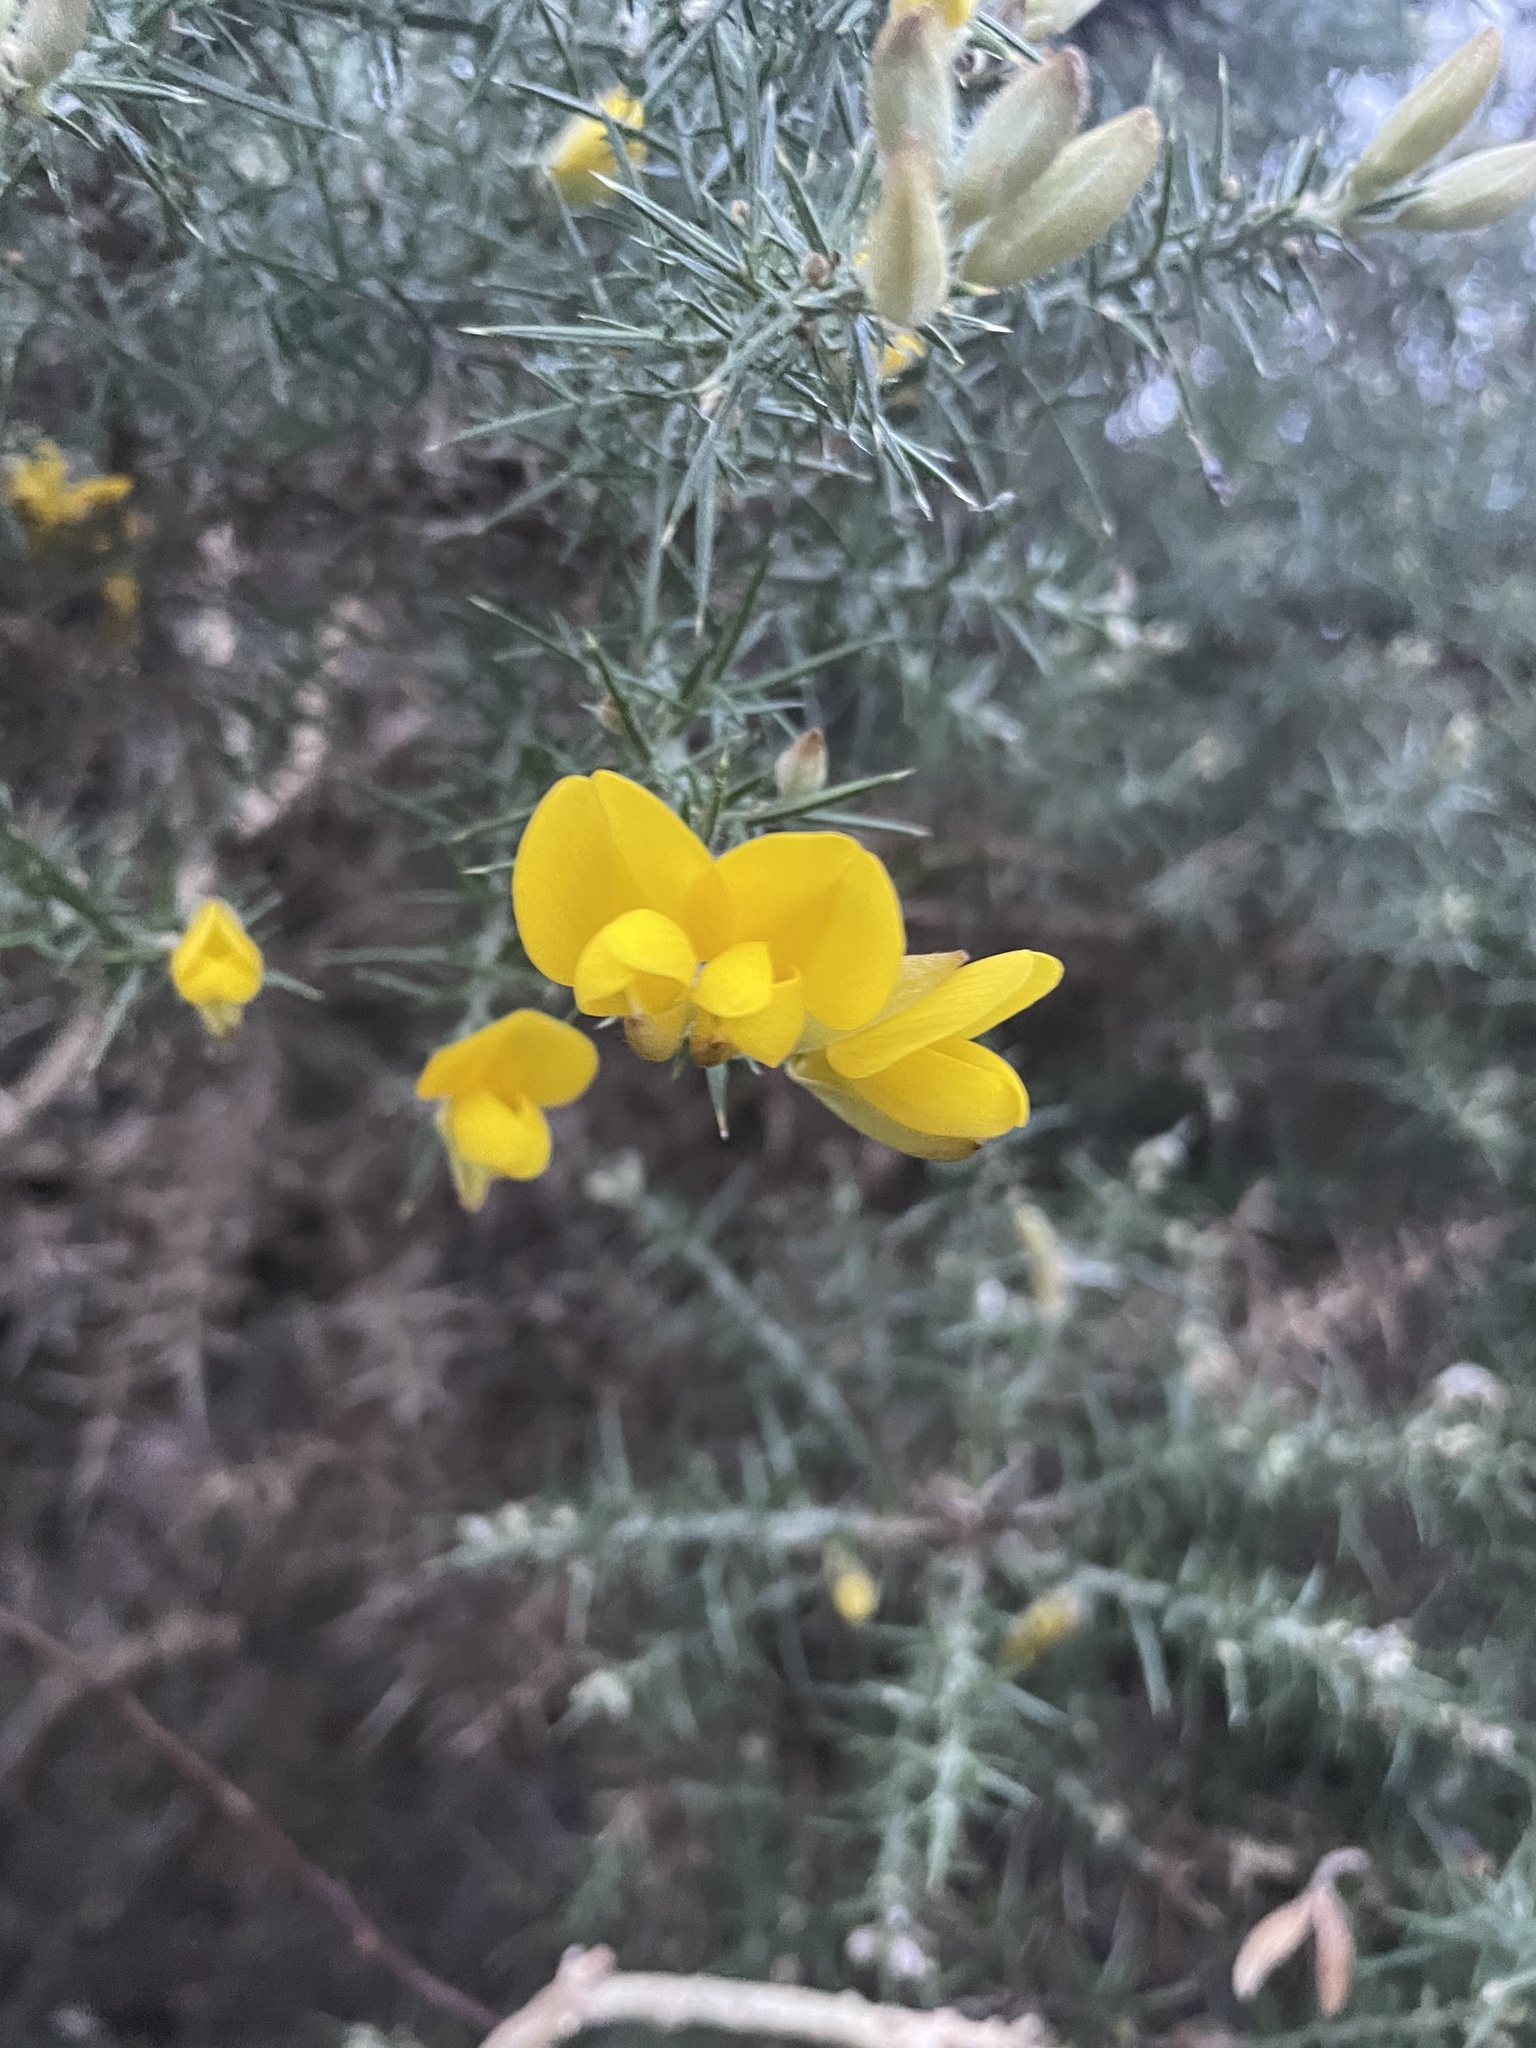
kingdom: Plantae
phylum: Tracheophyta
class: Magnoliopsida
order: Fabales
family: Fabaceae
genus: Ulex
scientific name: Ulex europaeus
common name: Common gorse
